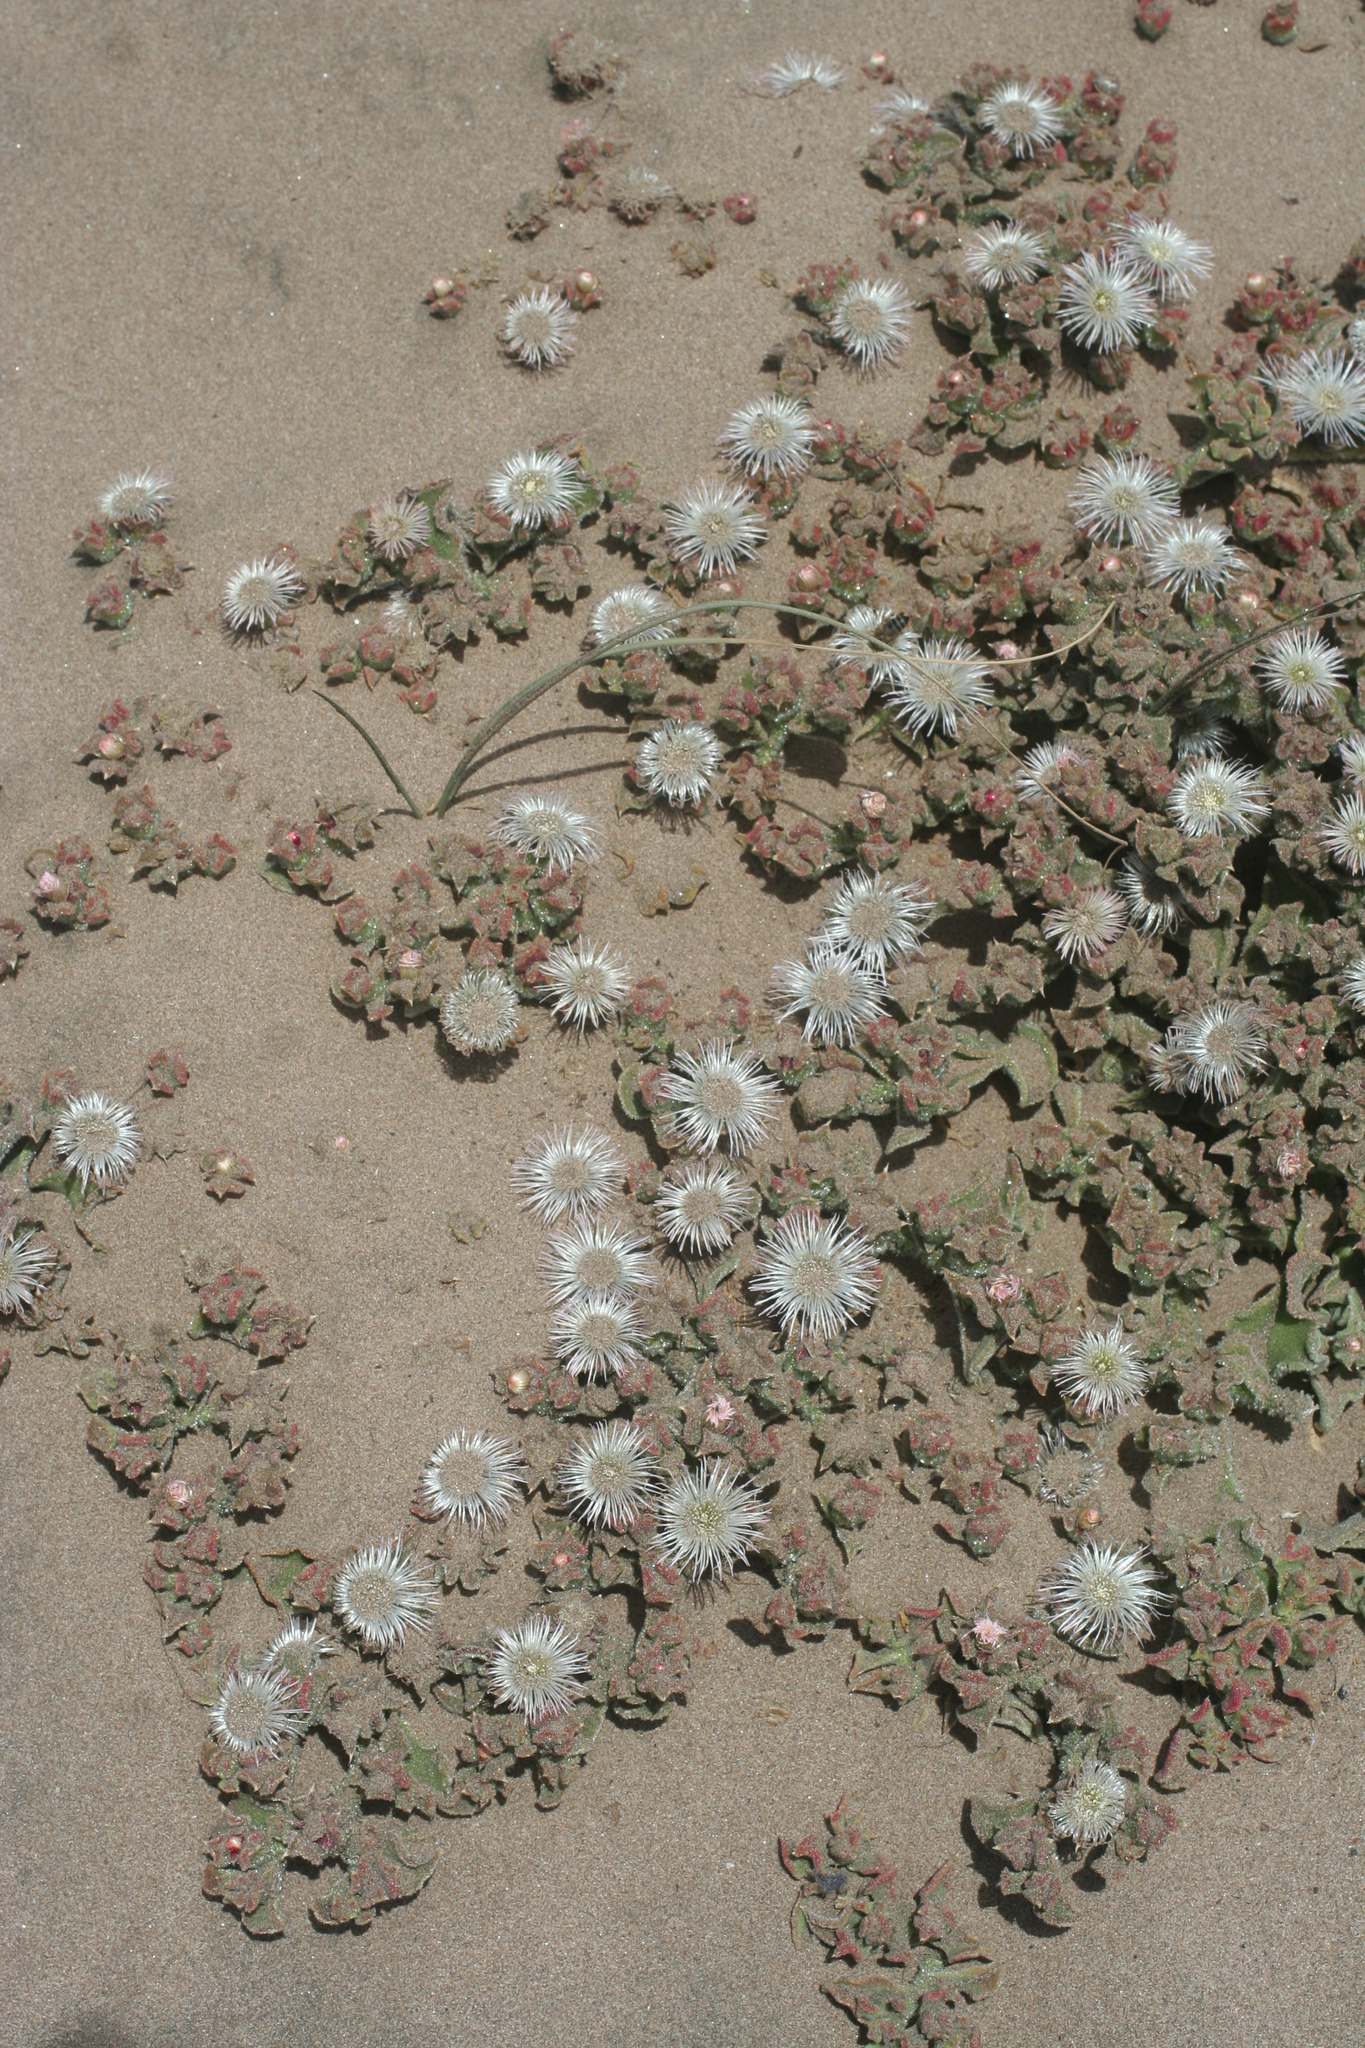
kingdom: Plantae
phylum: Tracheophyta
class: Magnoliopsida
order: Caryophyllales
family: Aizoaceae
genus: Mesembryanthemum
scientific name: Mesembryanthemum crystallinum
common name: Common iceplant
